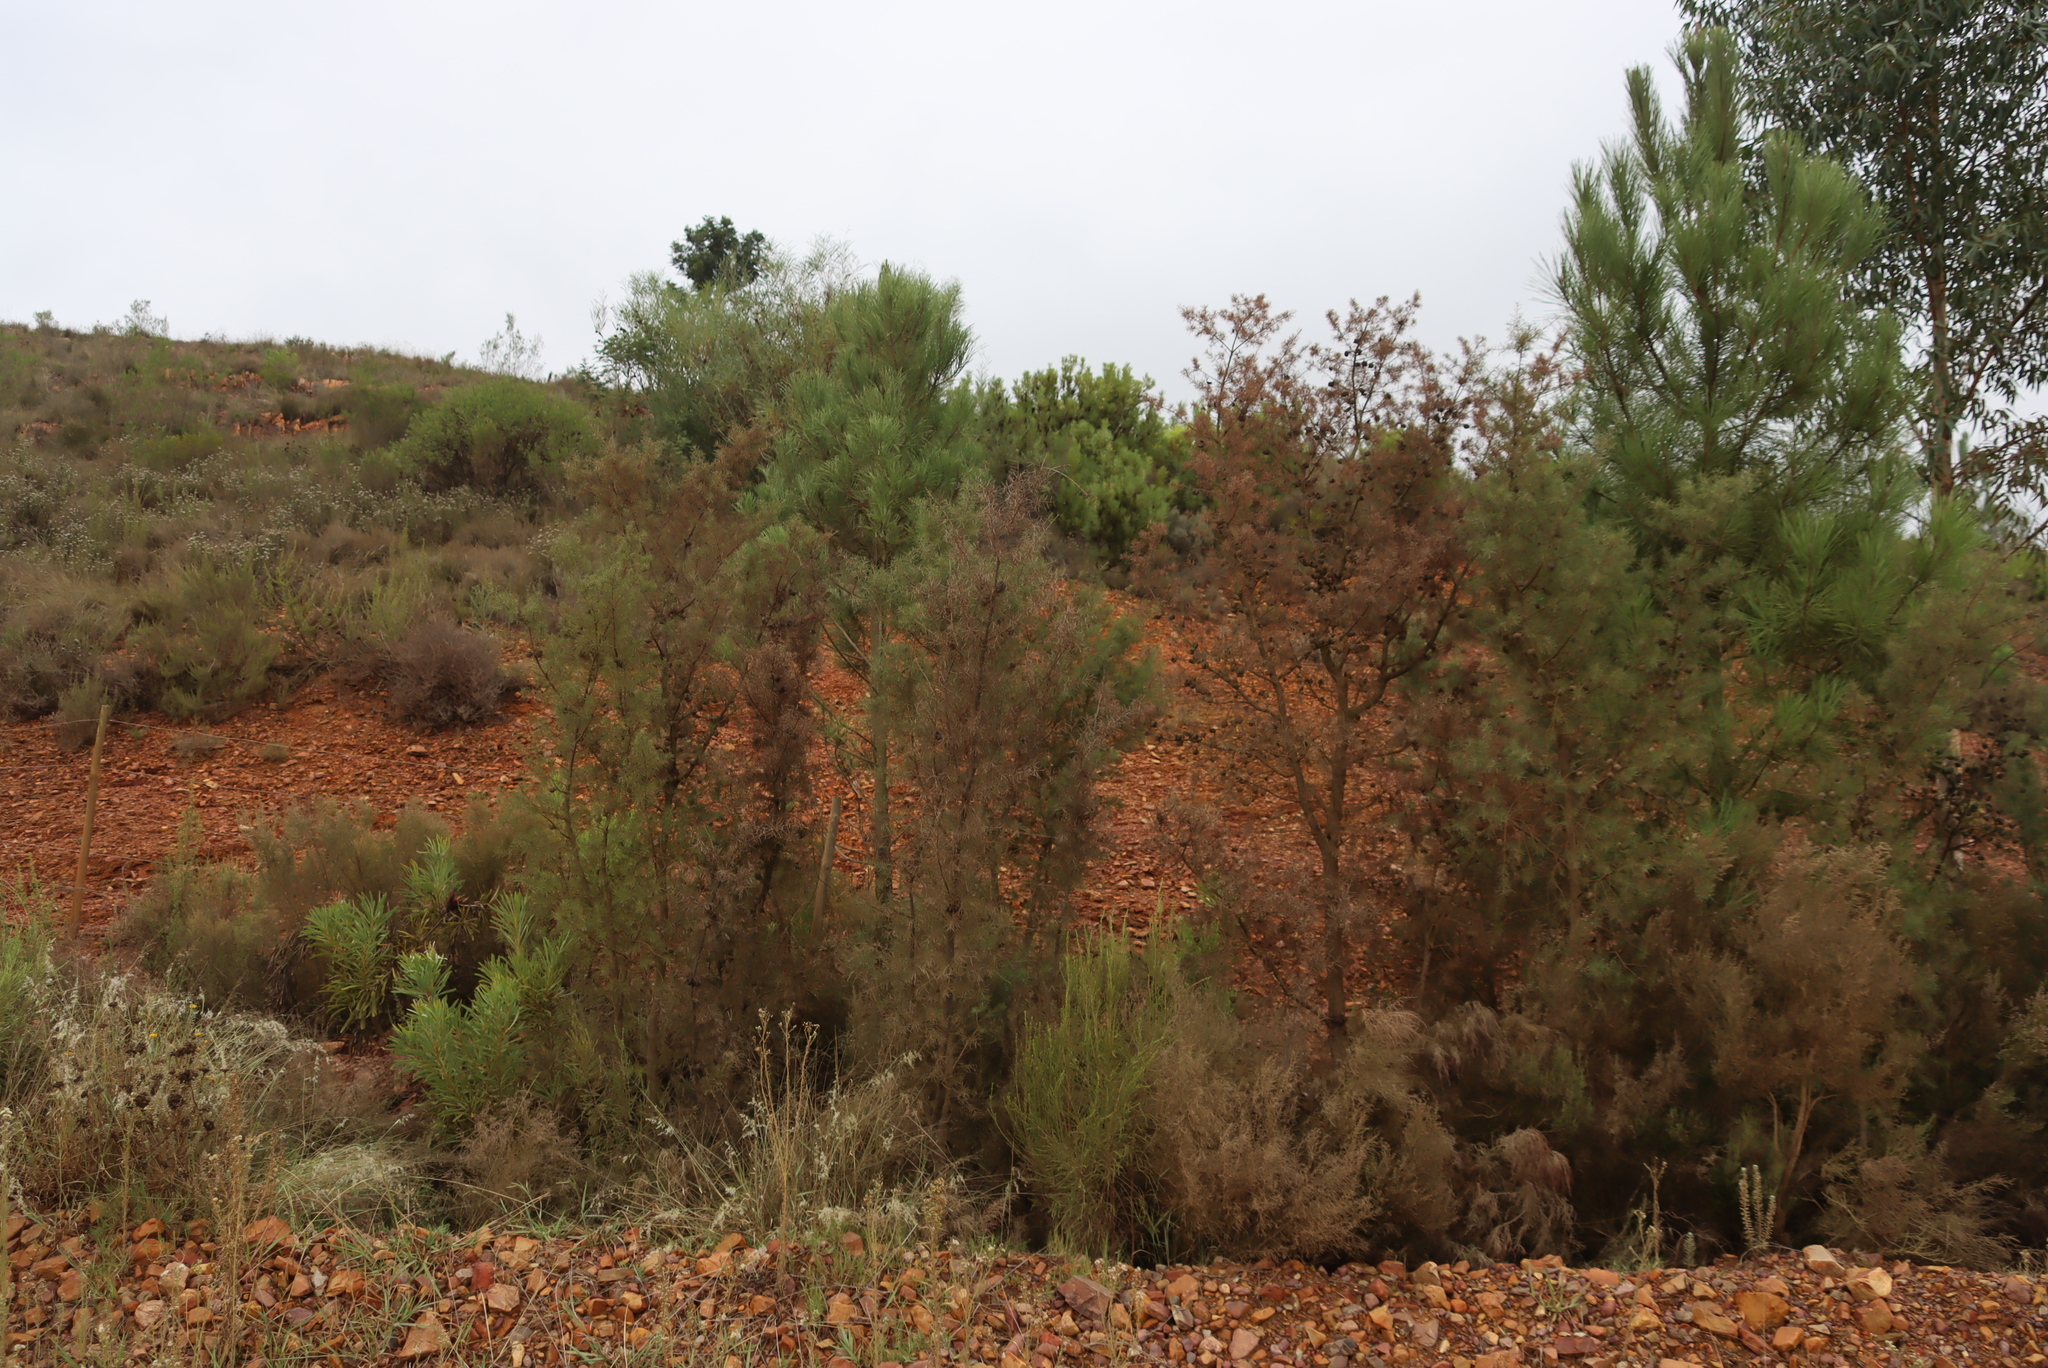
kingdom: Plantae
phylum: Tracheophyta
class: Magnoliopsida
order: Proteales
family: Proteaceae
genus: Hakea
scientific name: Hakea sericea
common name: Needle bush
